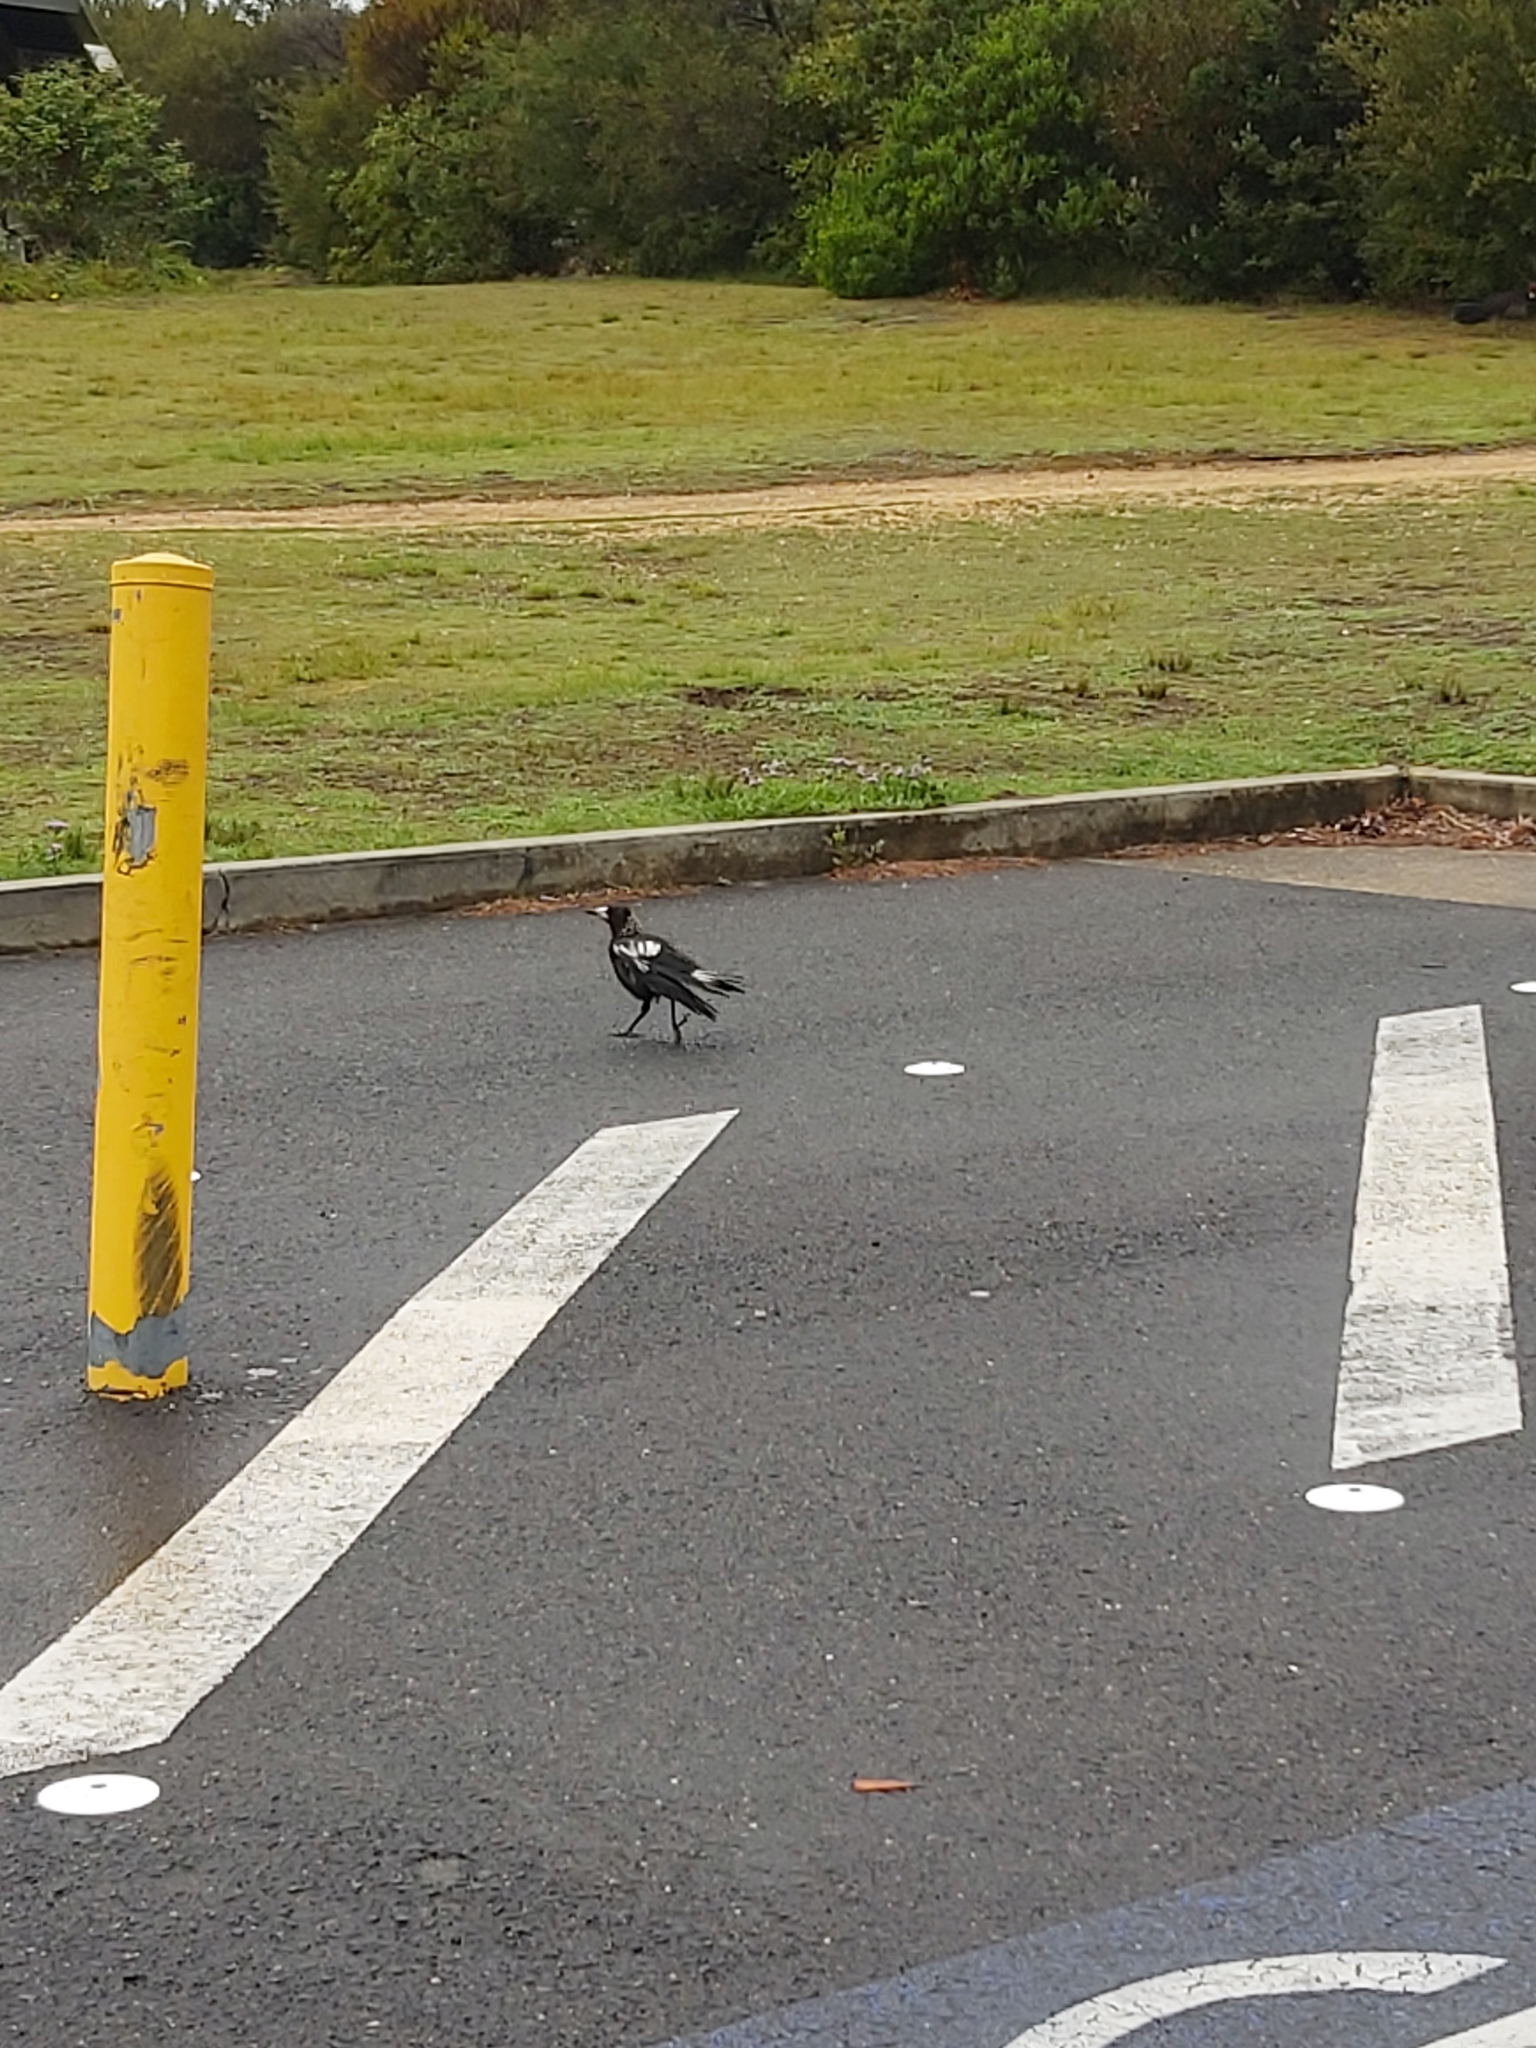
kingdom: Animalia
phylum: Chordata
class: Aves
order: Passeriformes
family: Cracticidae
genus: Gymnorhina
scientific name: Gymnorhina tibicen
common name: Australian magpie
